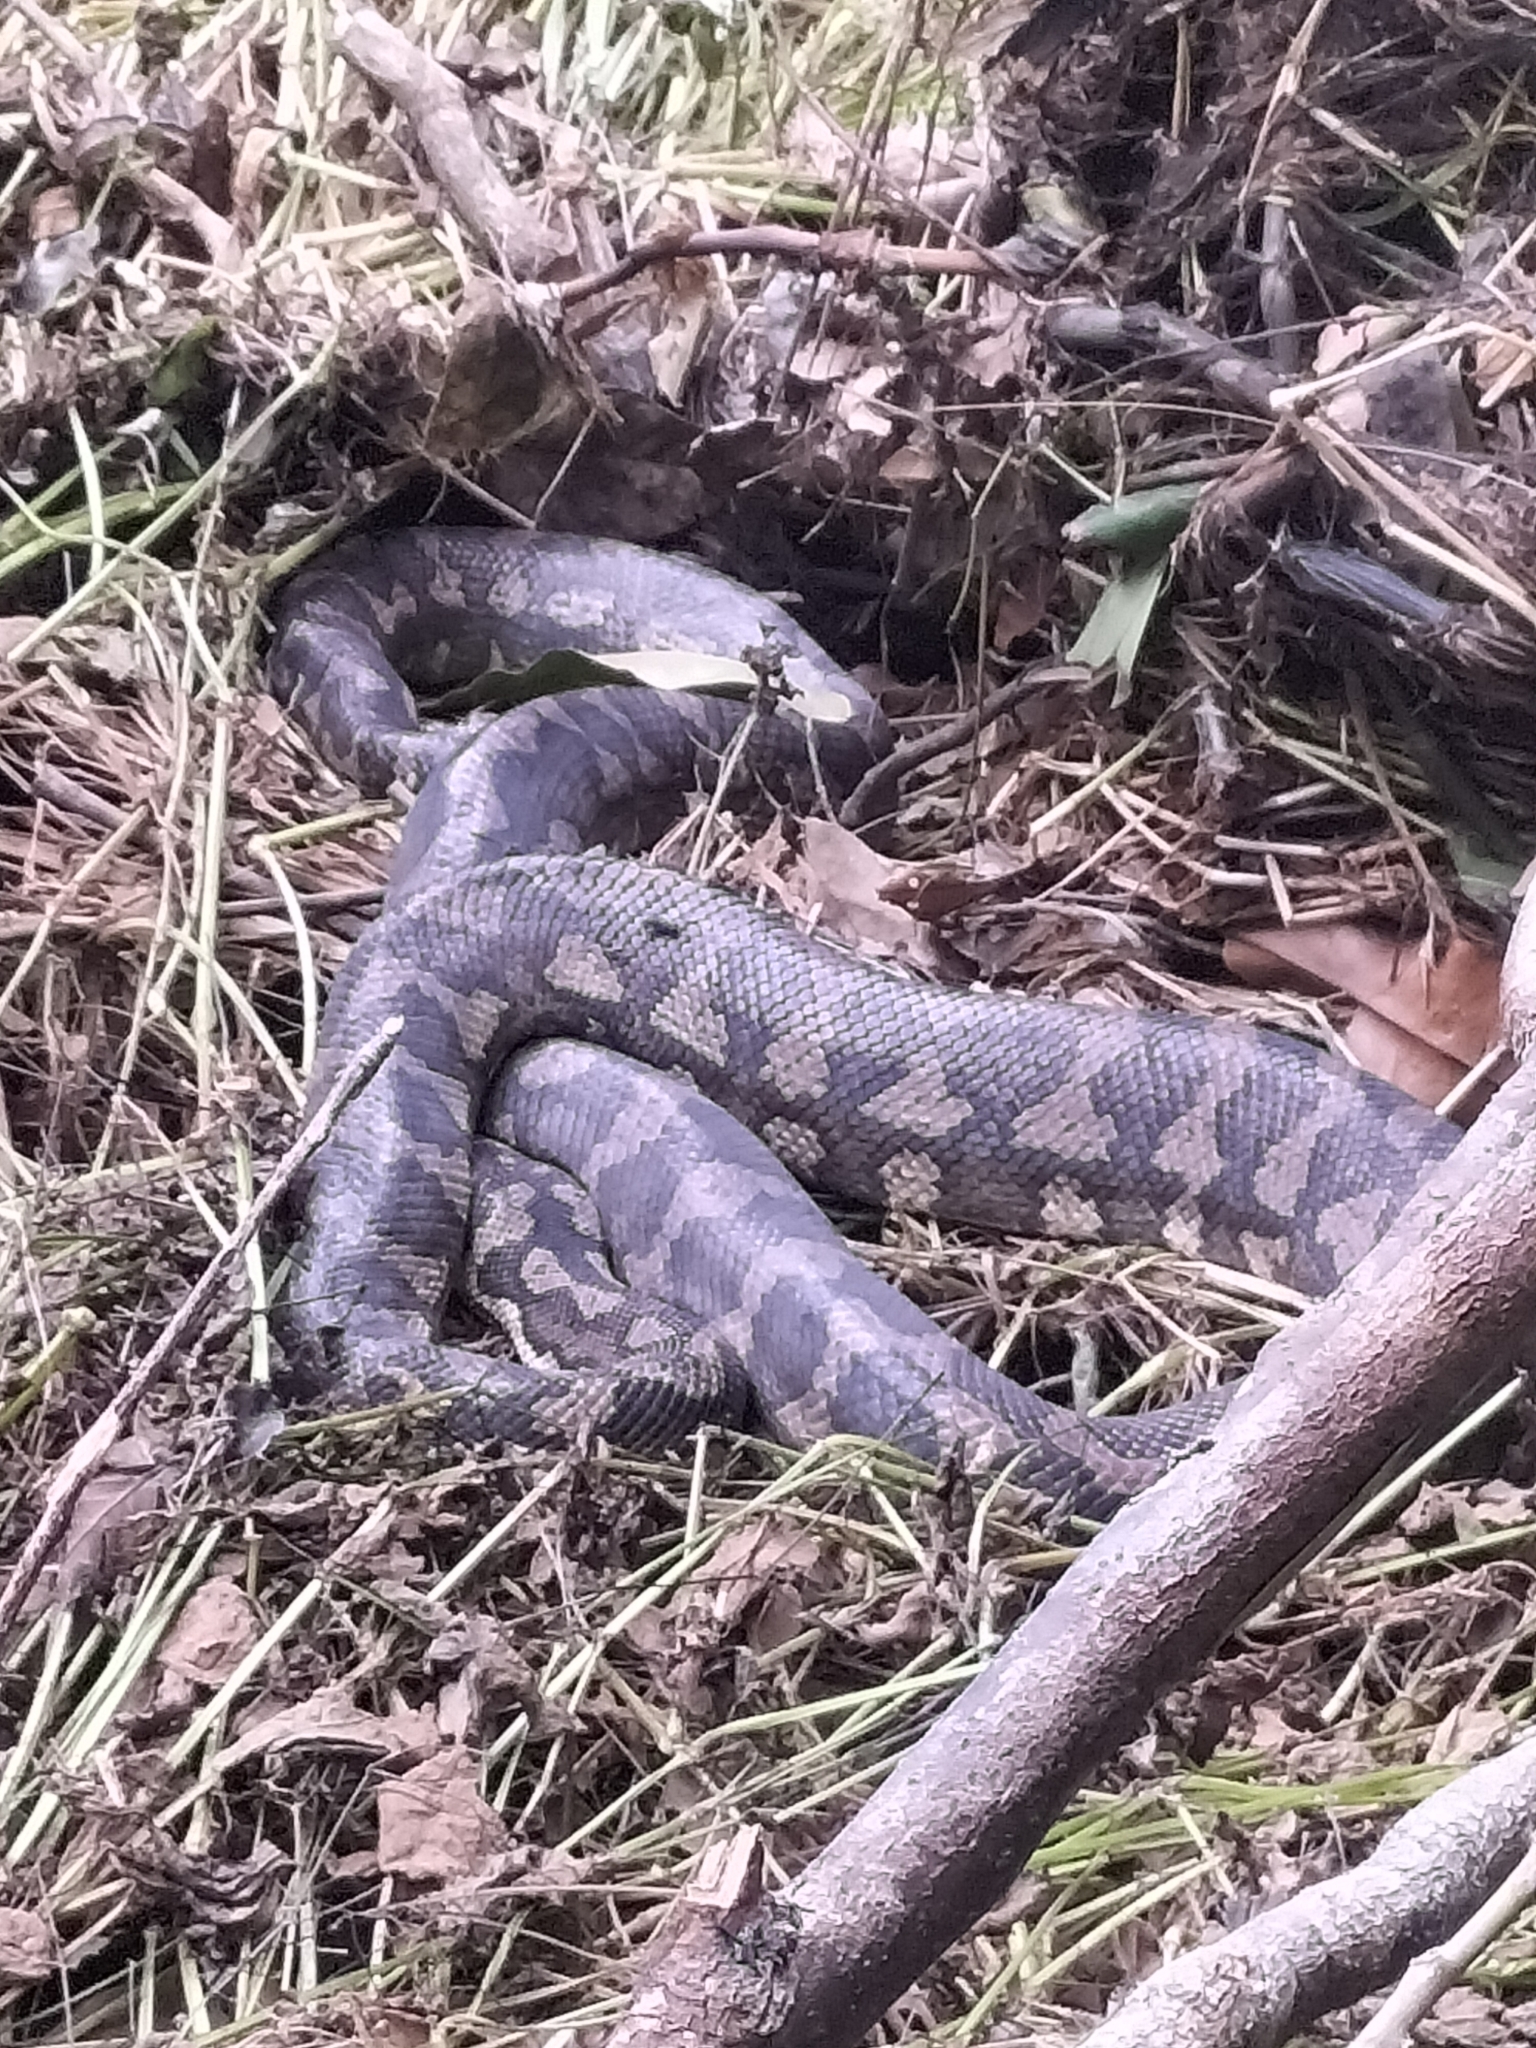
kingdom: Animalia
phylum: Chordata
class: Squamata
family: Pythonidae
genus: Morelia
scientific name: Morelia spilota
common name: Carpet python
